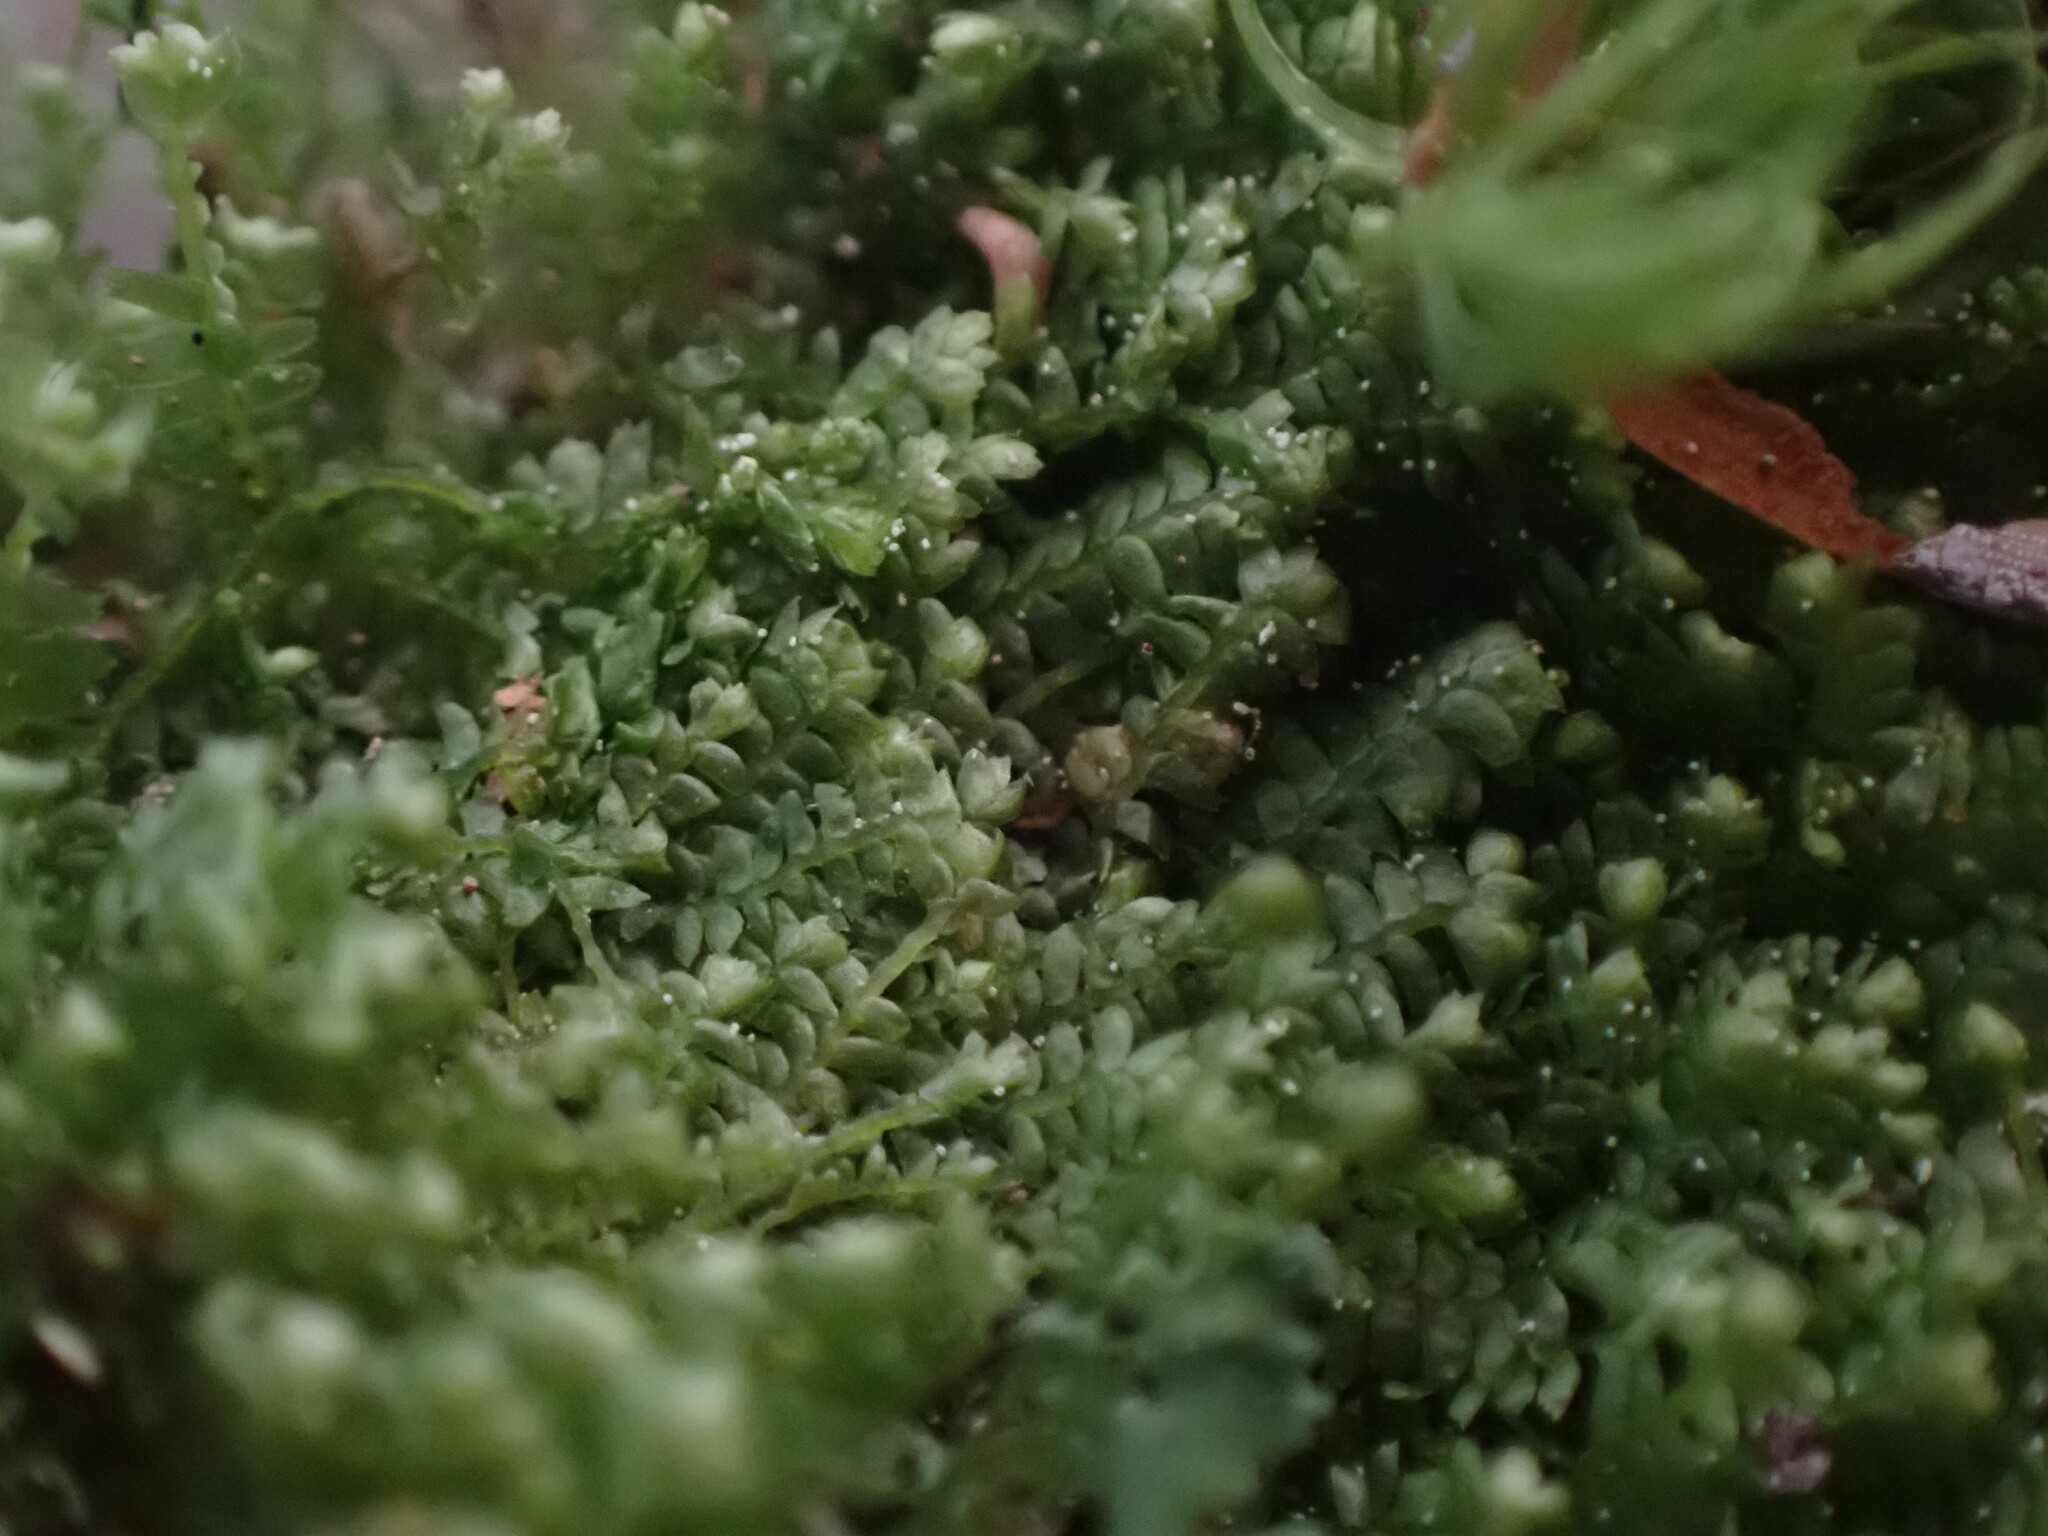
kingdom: Plantae
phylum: Marchantiophyta
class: Jungermanniopsida
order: Jungermanniales
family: Lepidoziaceae
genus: Bazzania
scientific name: Bazzania denudata
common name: Naked whipwort
